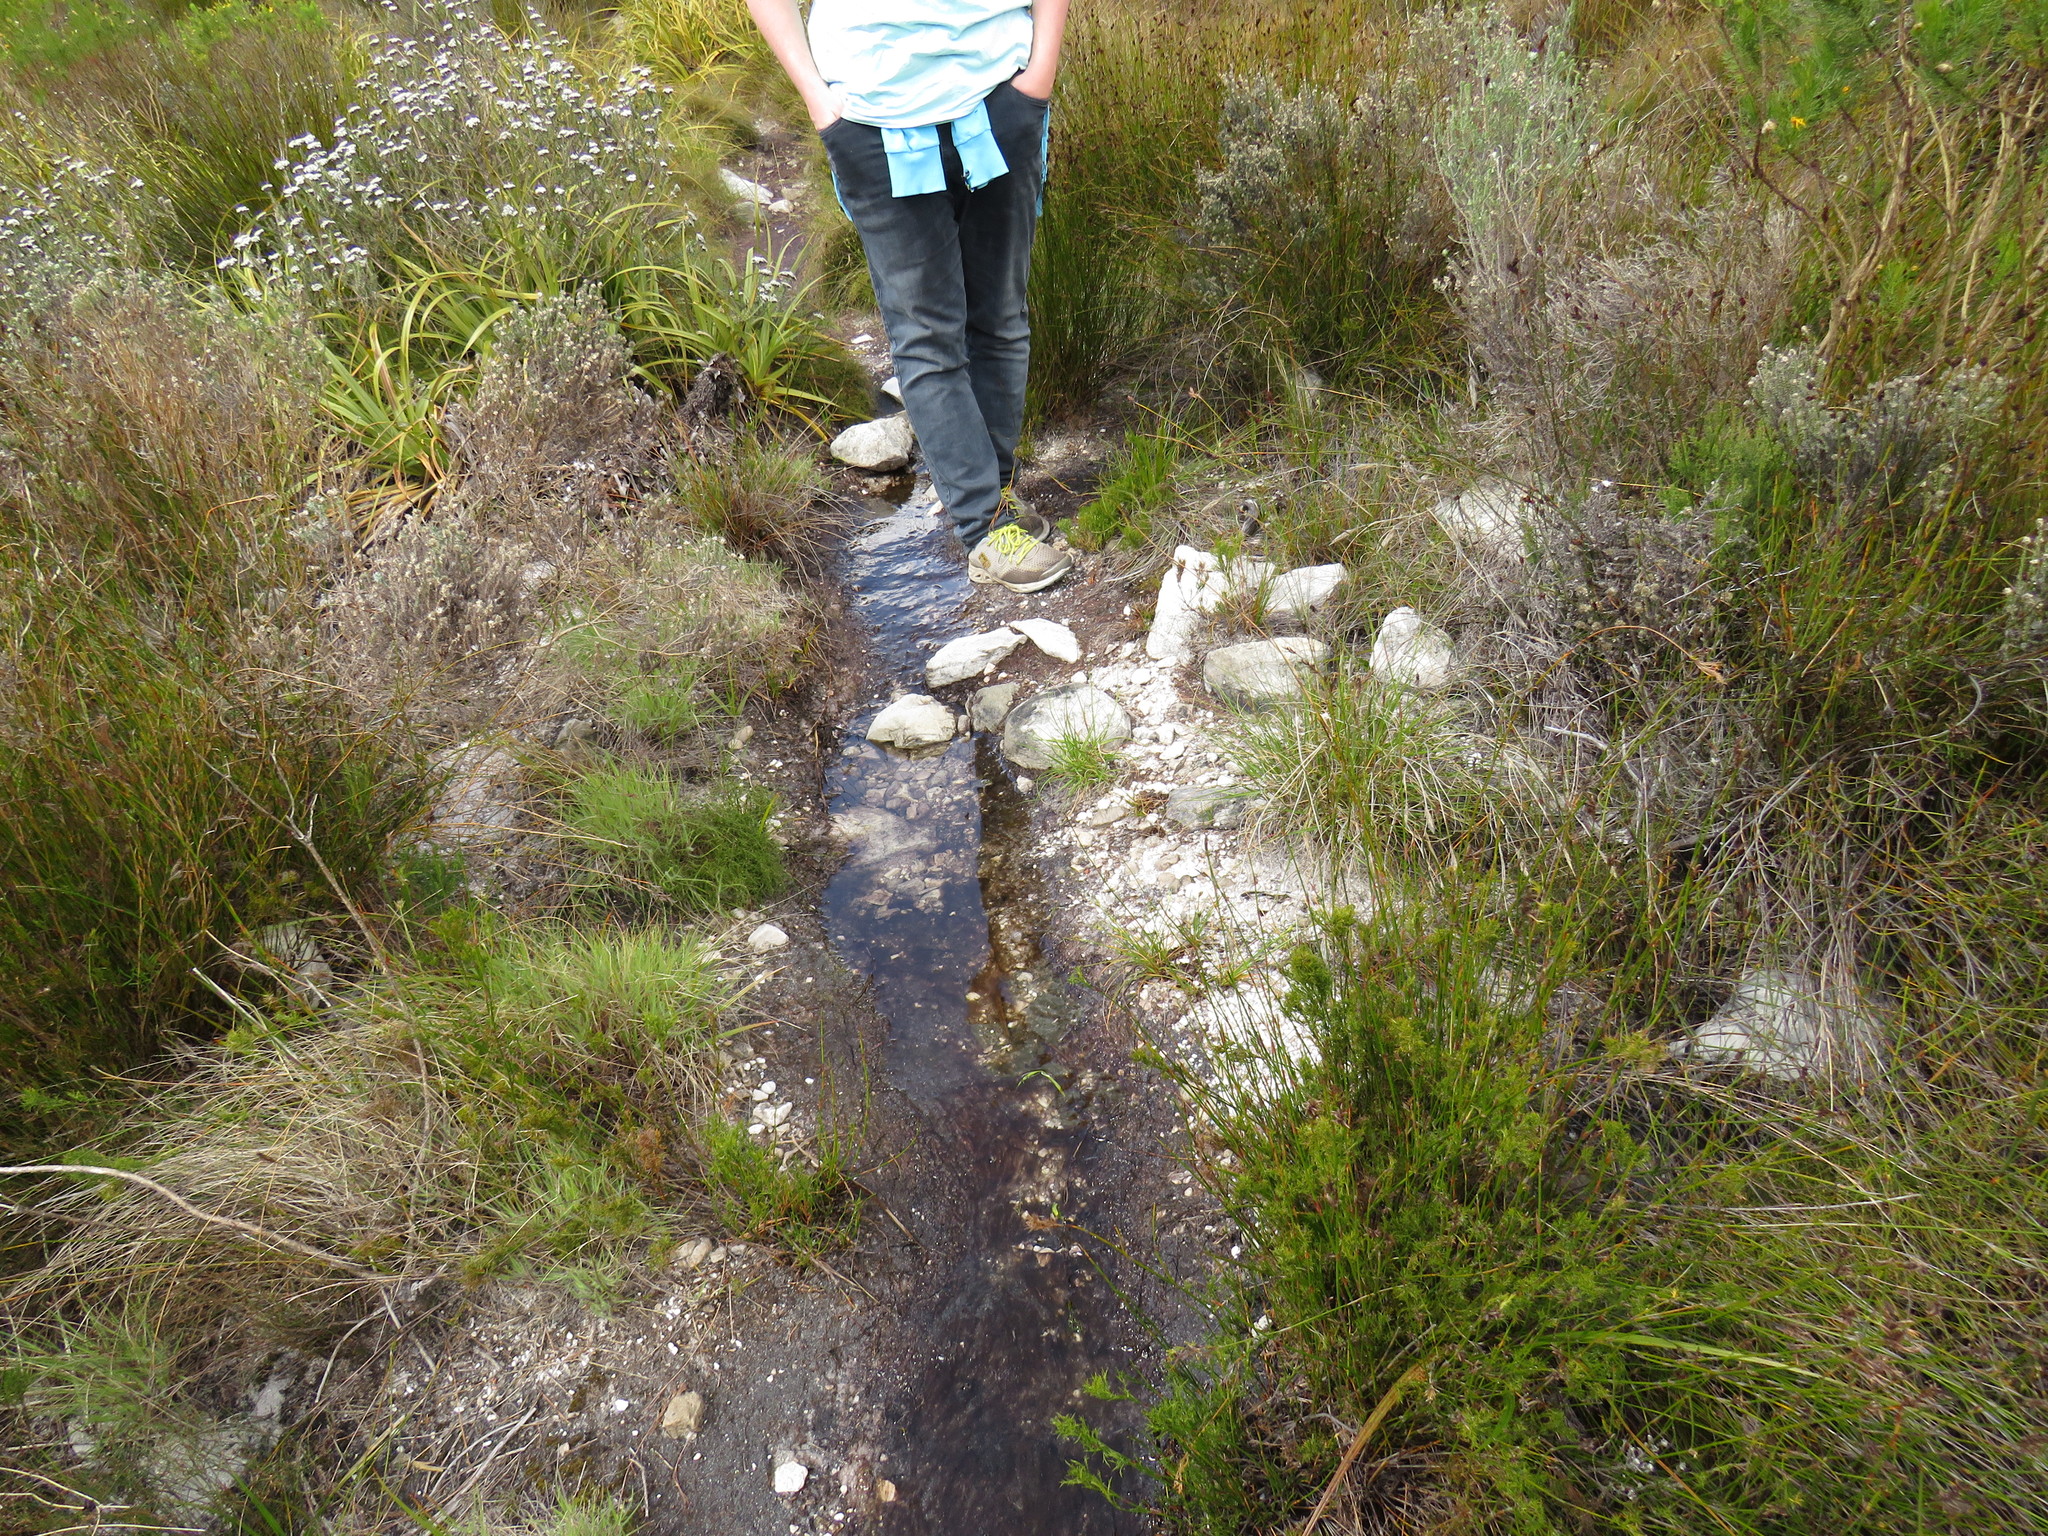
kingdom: Animalia
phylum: Chordata
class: Amphibia
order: Anura
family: Pyxicephalidae
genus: Amietia
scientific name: Amietia fuscigula
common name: Cape rana
